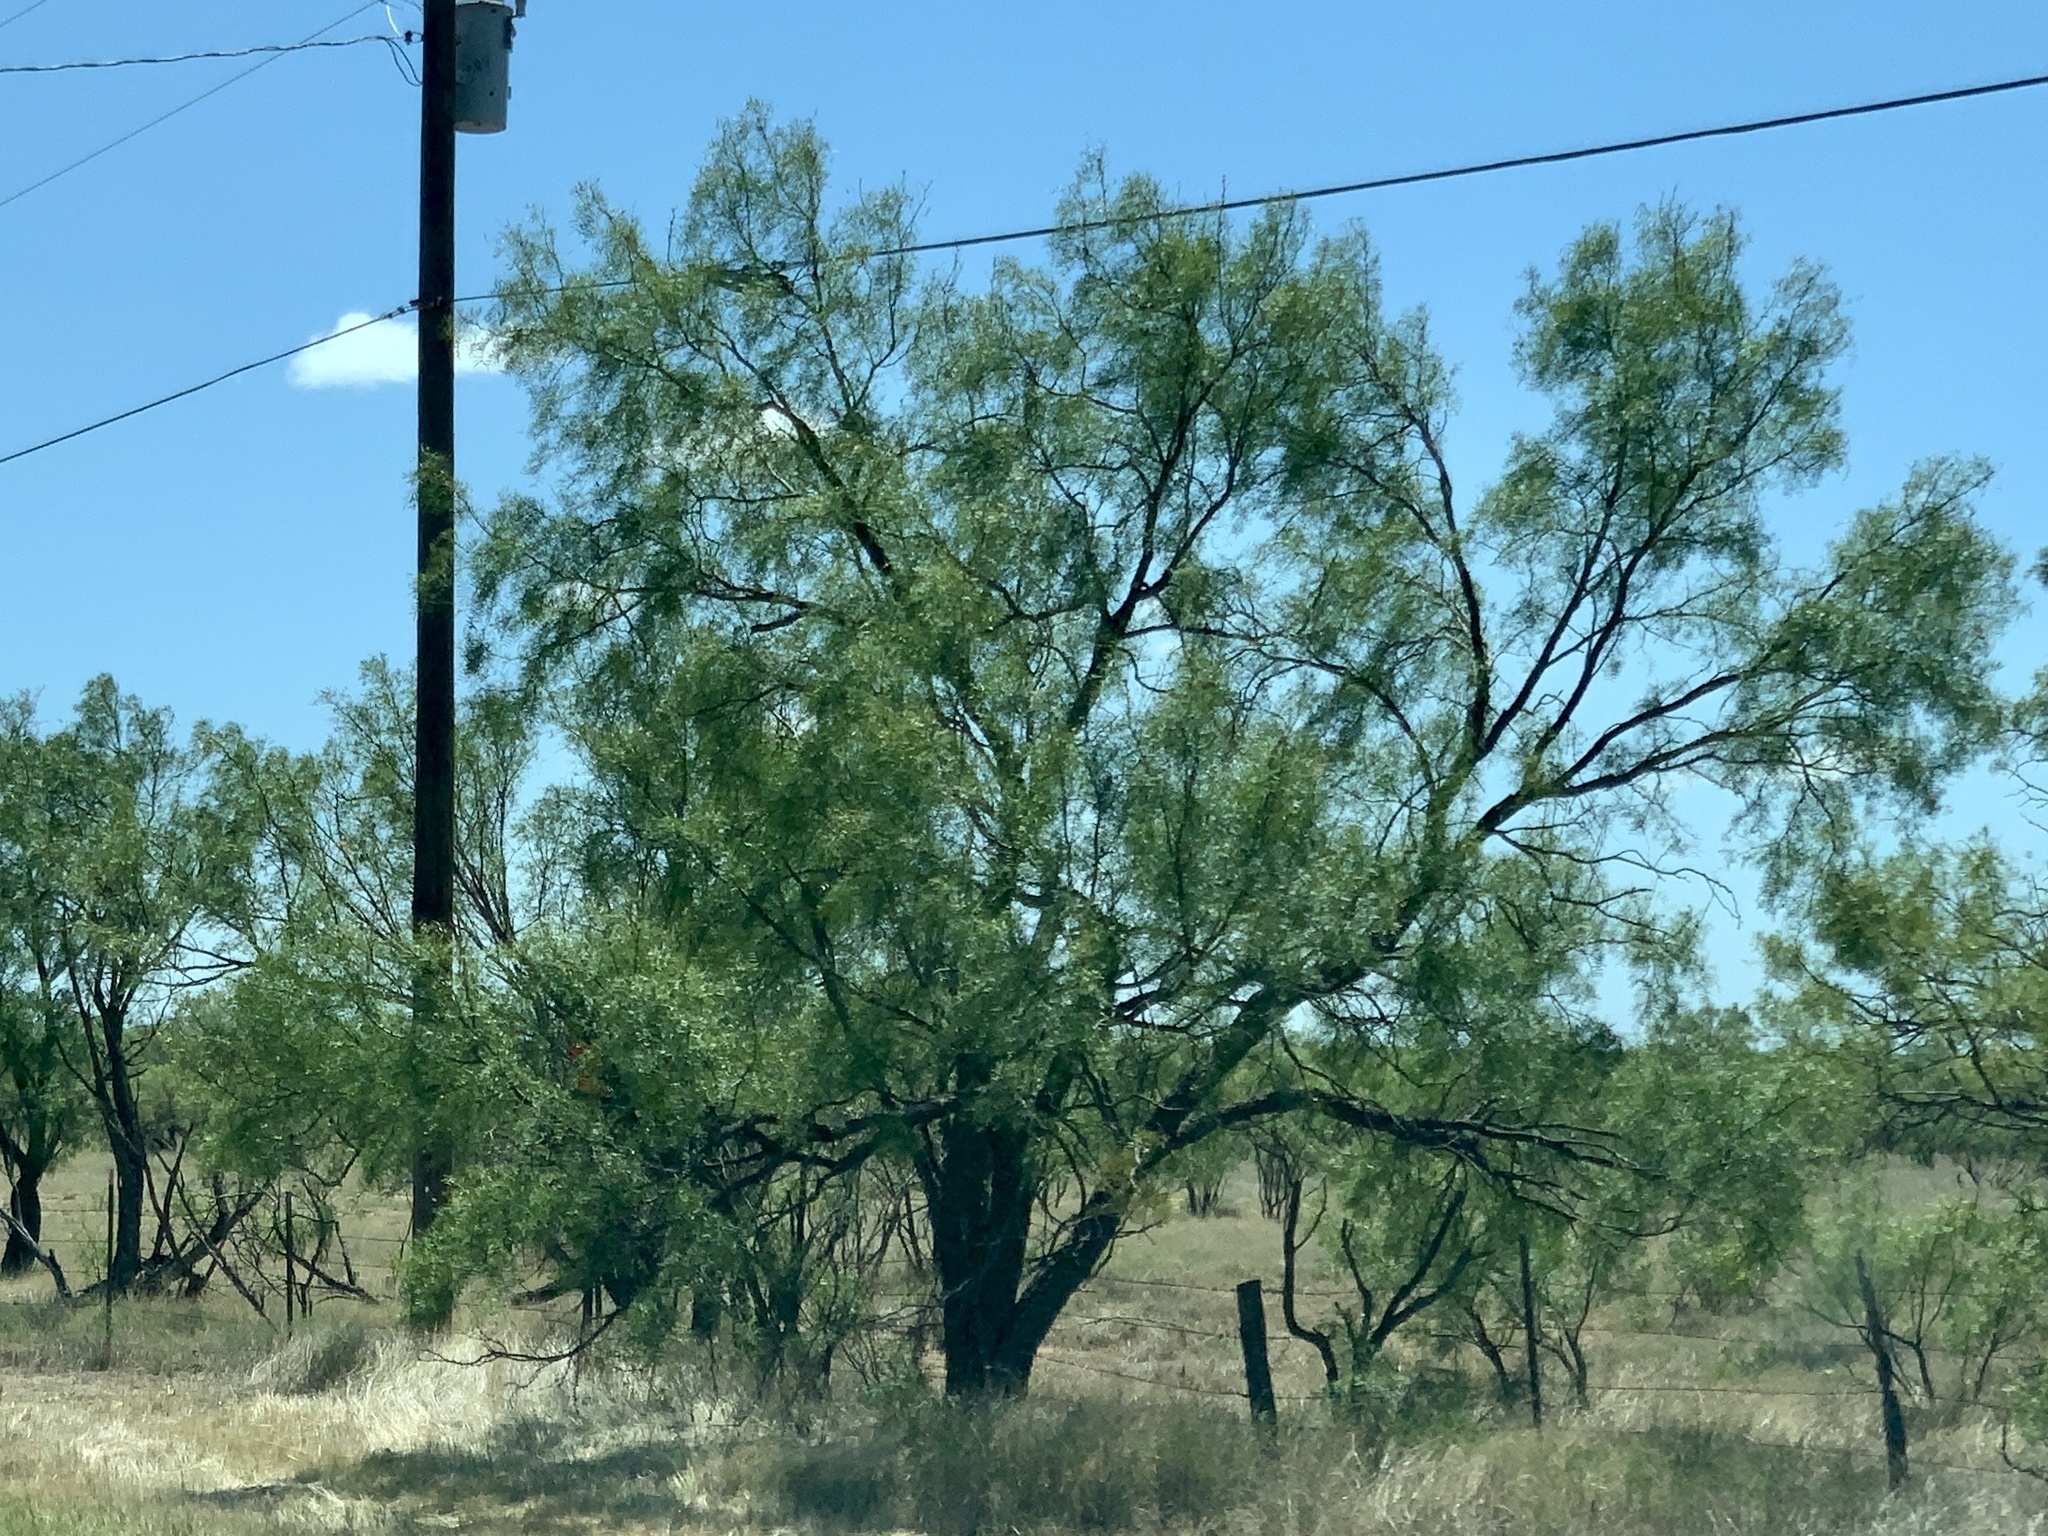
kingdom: Plantae
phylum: Tracheophyta
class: Magnoliopsida
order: Fabales
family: Fabaceae
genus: Prosopis
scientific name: Prosopis glandulosa
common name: Honey mesquite
